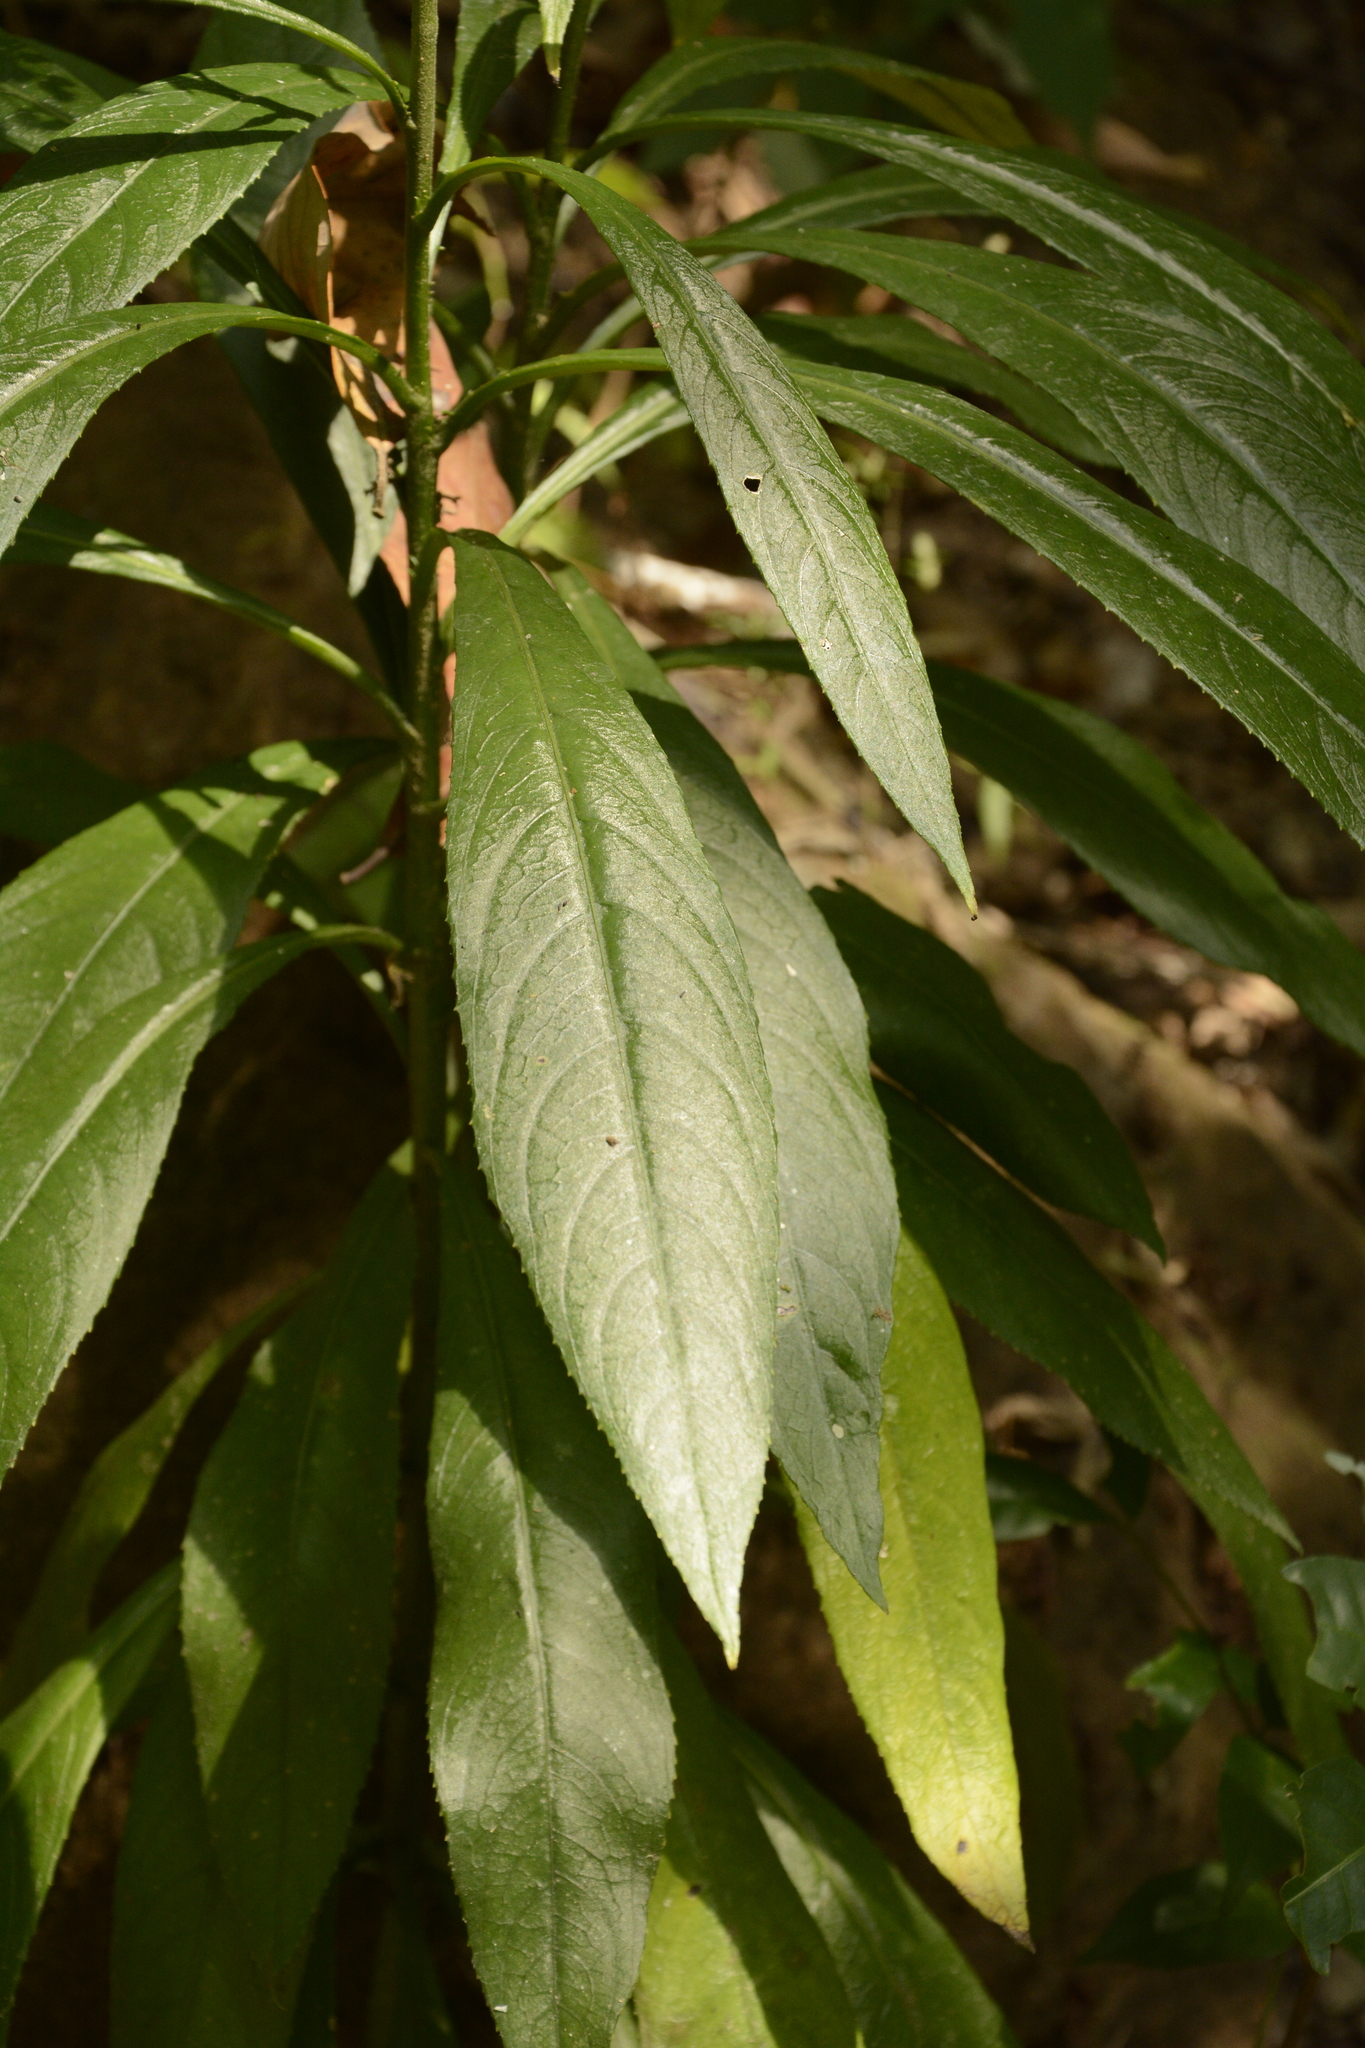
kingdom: Plantae
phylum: Tracheophyta
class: Magnoliopsida
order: Asterales
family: Asteraceae
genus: Blumea
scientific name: Blumea lanceolaria
